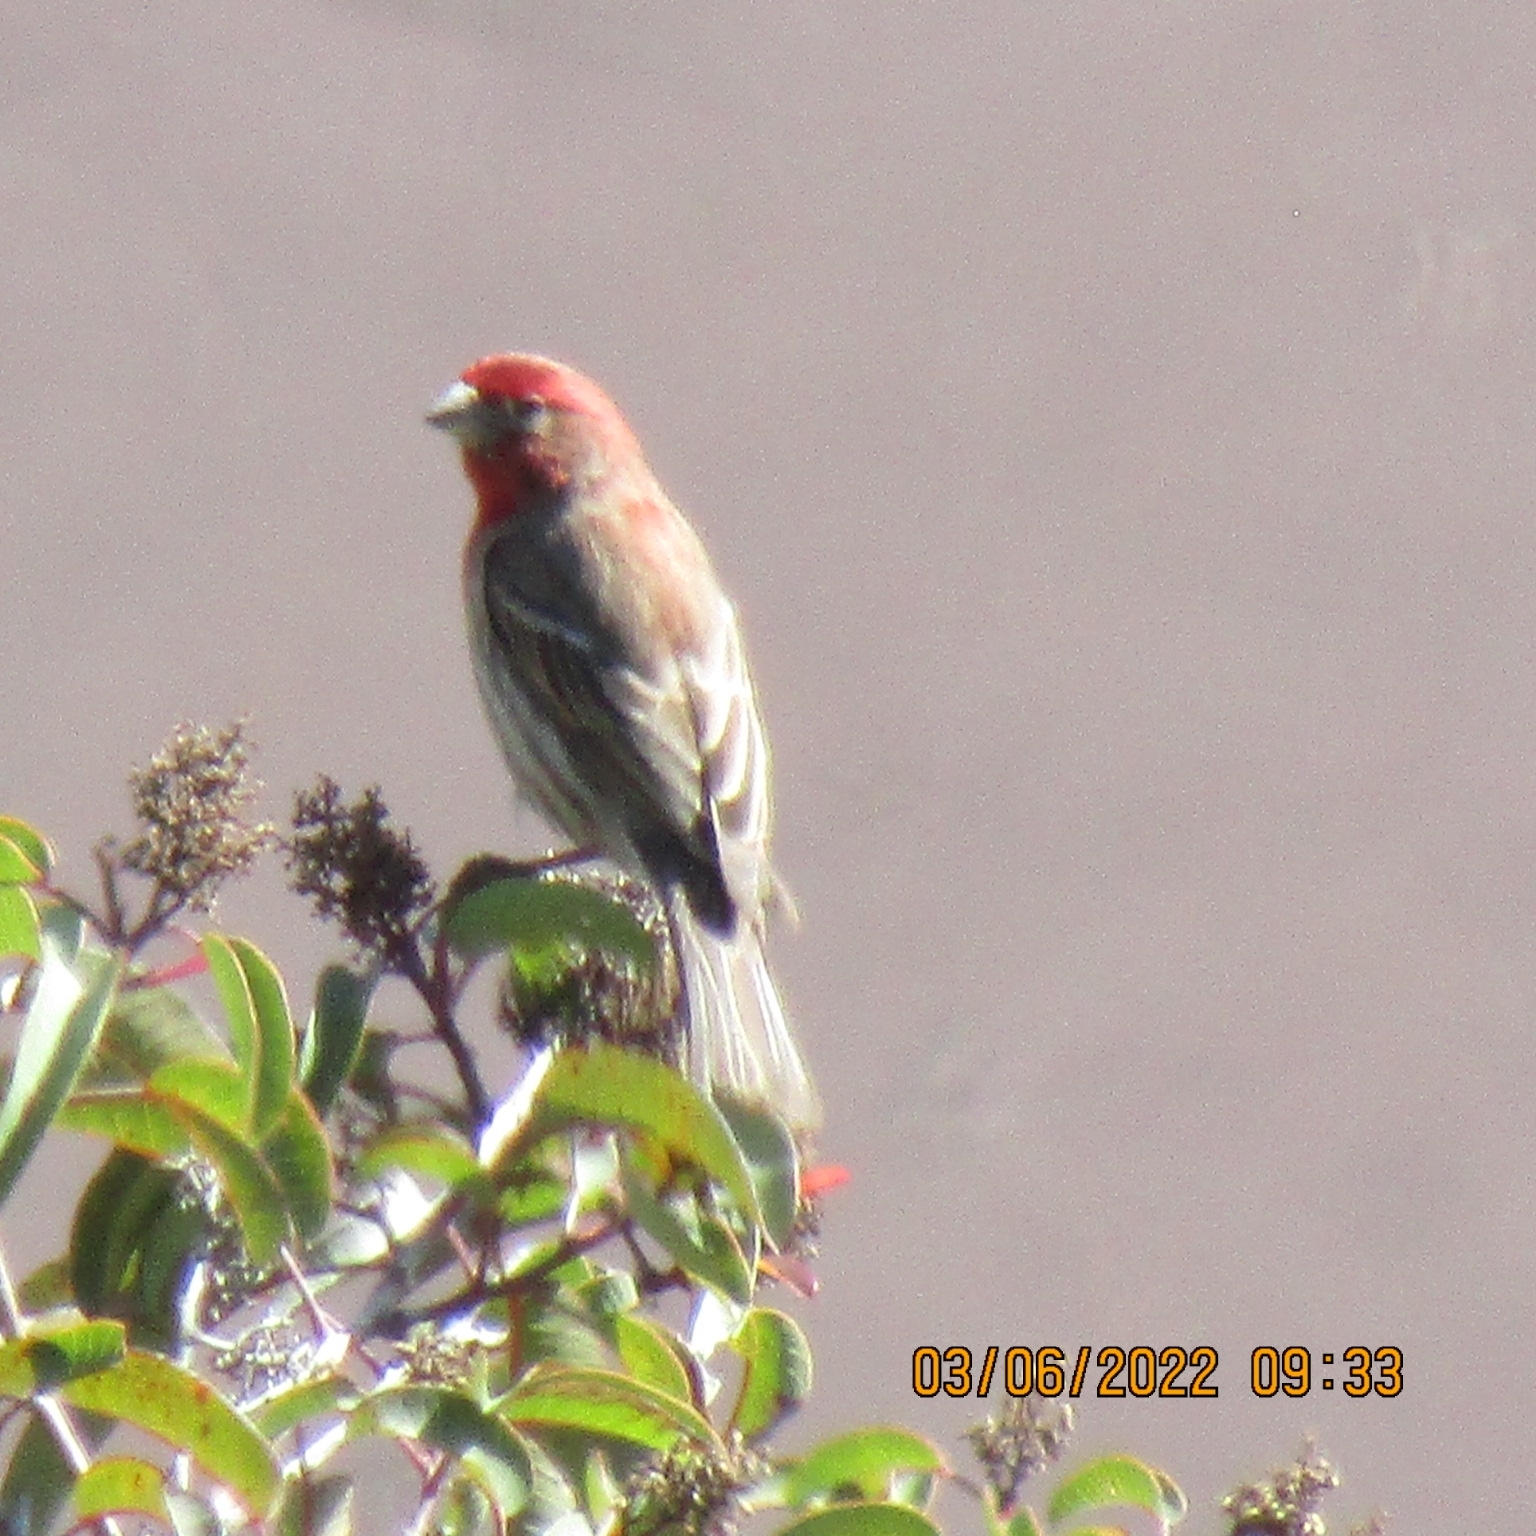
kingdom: Animalia
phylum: Chordata
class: Aves
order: Passeriformes
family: Fringillidae
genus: Haemorhous
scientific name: Haemorhous mexicanus
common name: House finch
